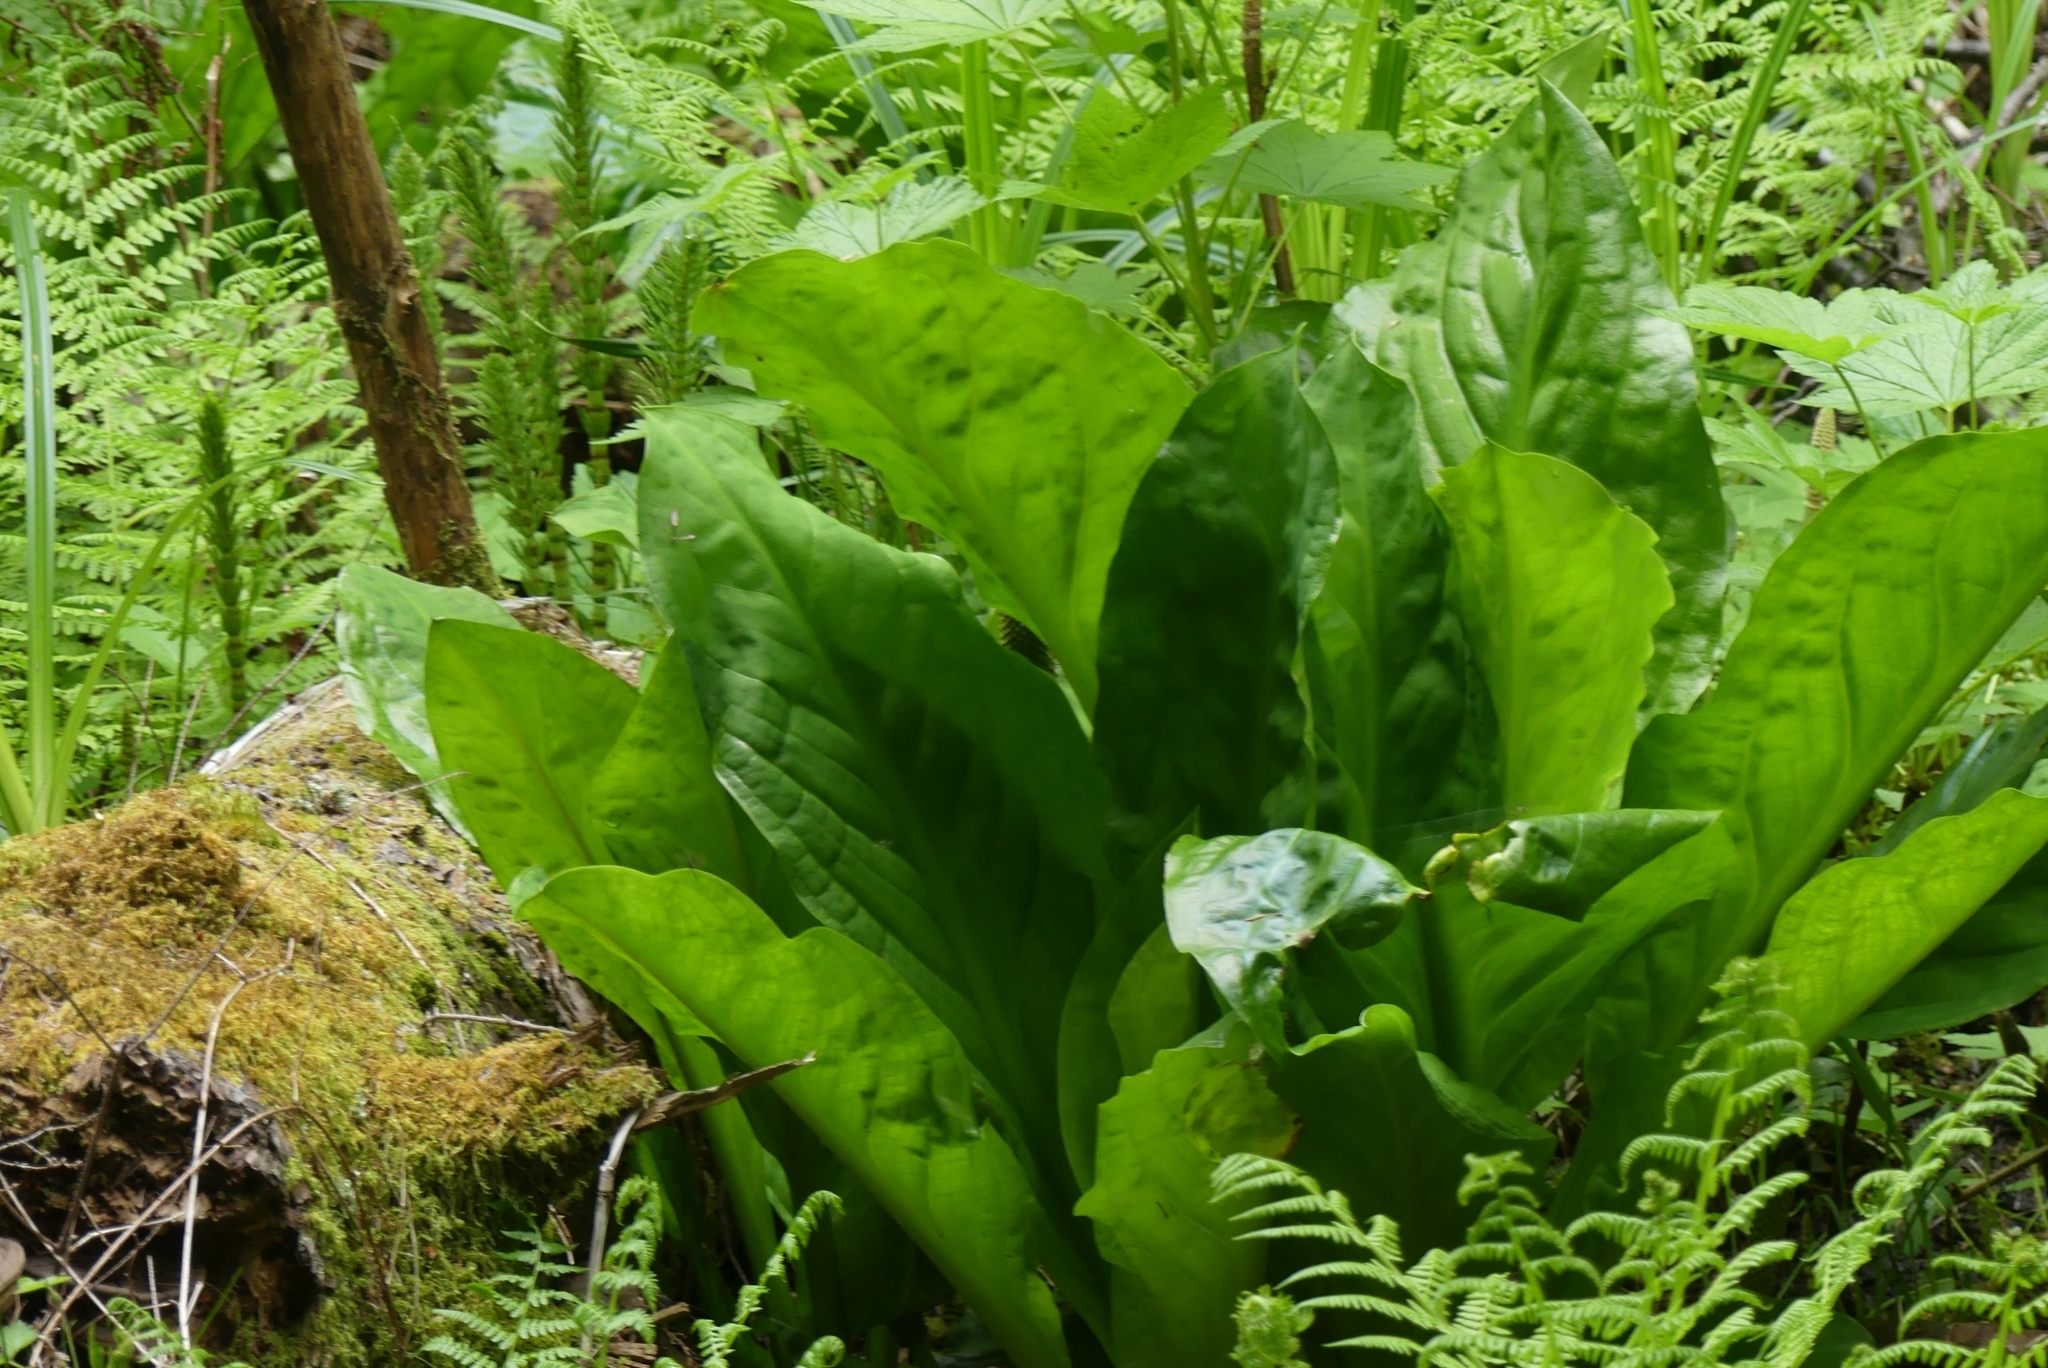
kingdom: Plantae
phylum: Tracheophyta
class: Liliopsida
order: Alismatales
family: Araceae
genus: Lysichiton
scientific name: Lysichiton americanus
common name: American skunk cabbage
